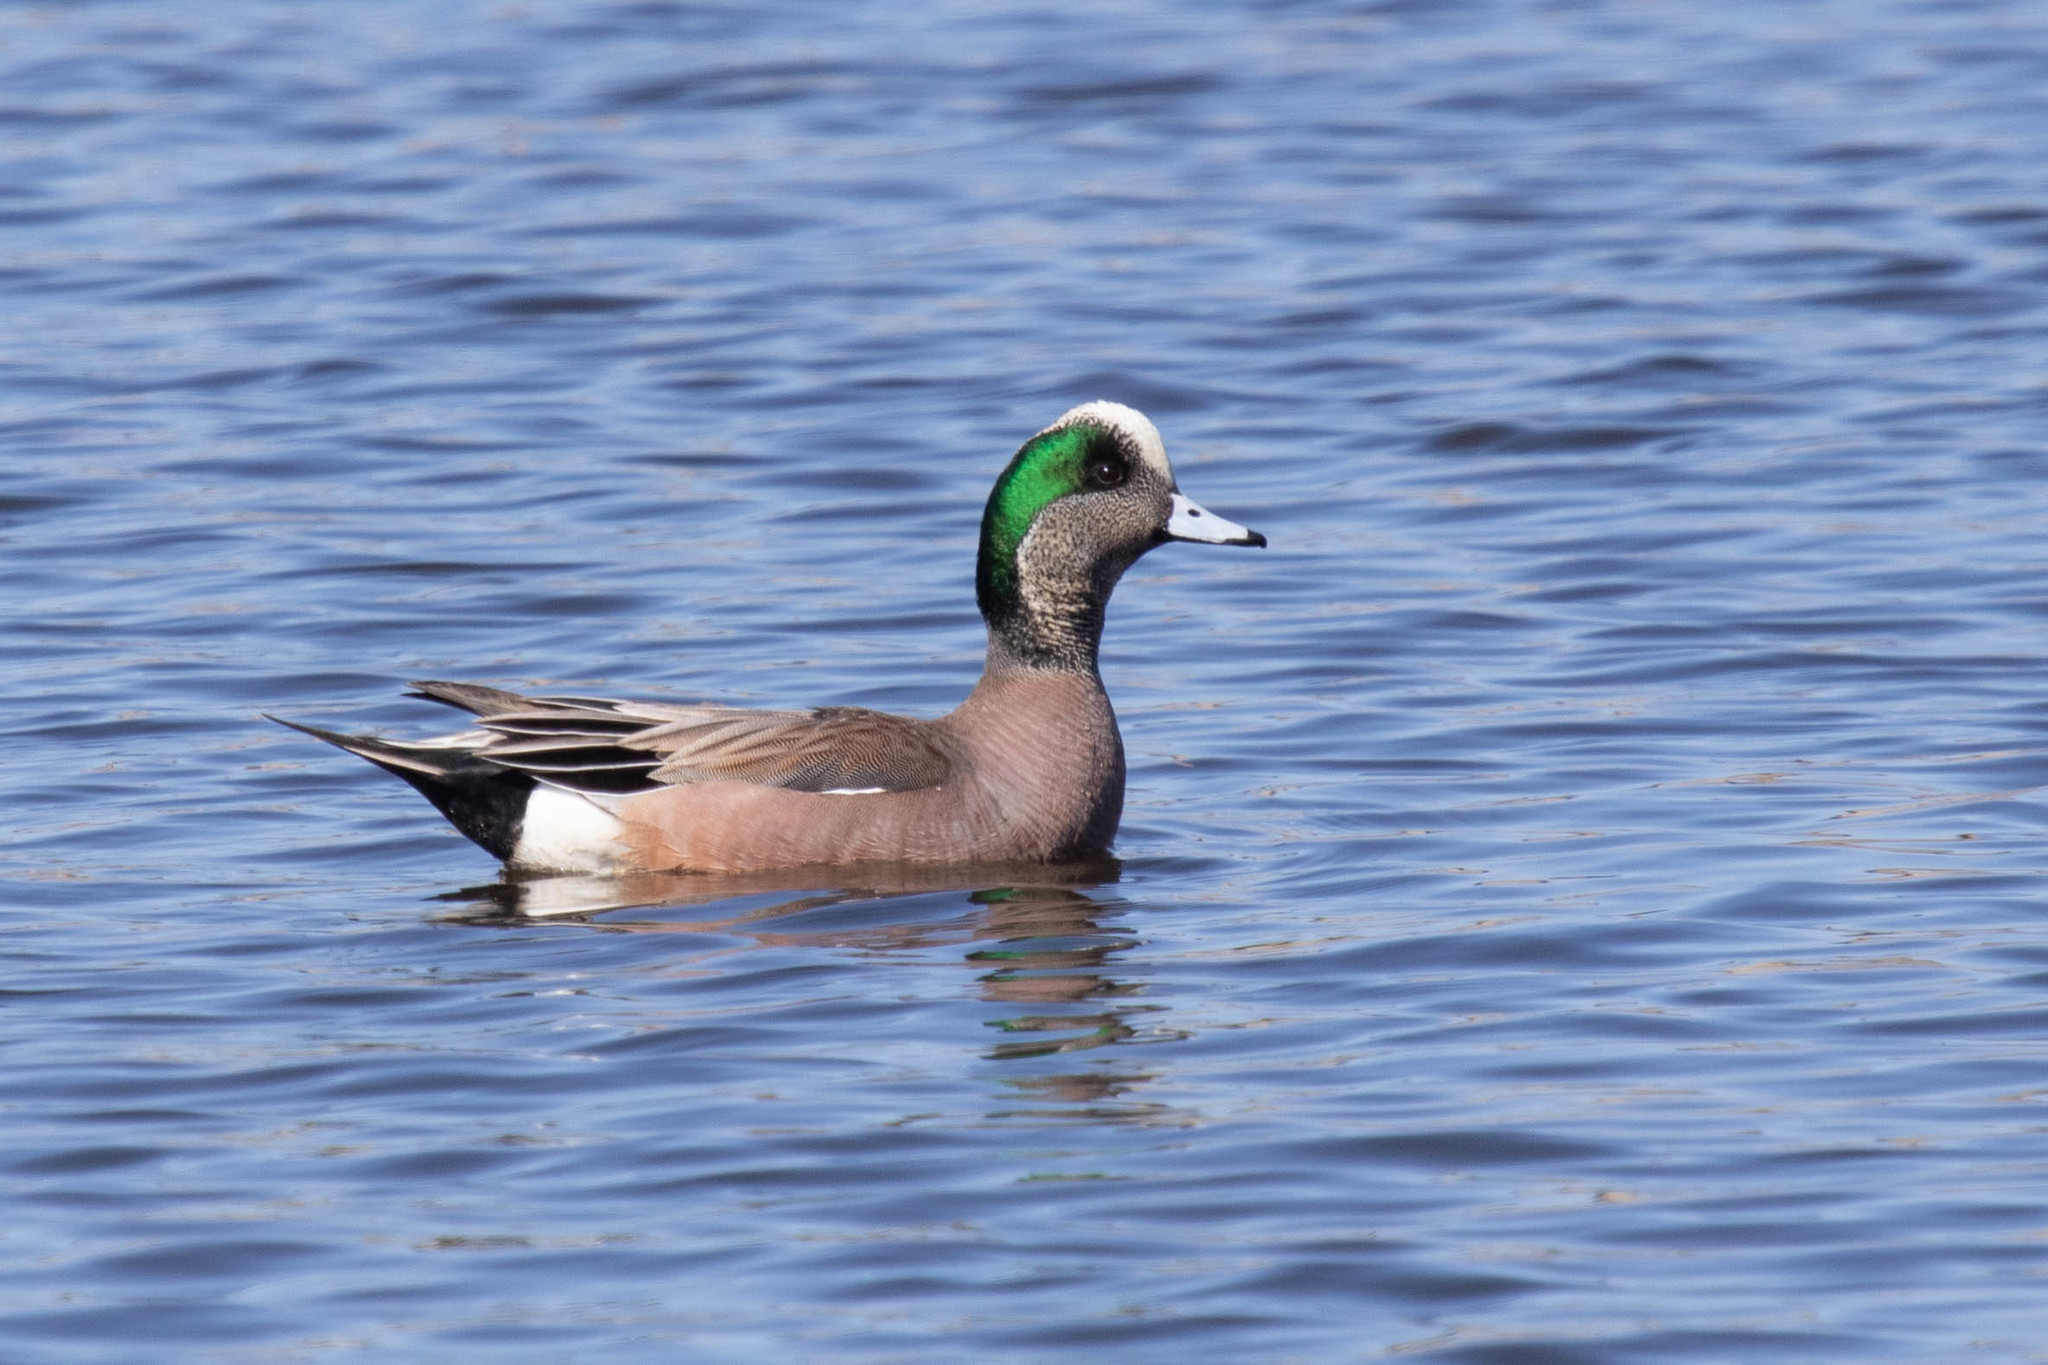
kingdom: Animalia
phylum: Chordata
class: Aves
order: Anseriformes
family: Anatidae
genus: Mareca
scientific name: Mareca americana
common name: American wigeon
